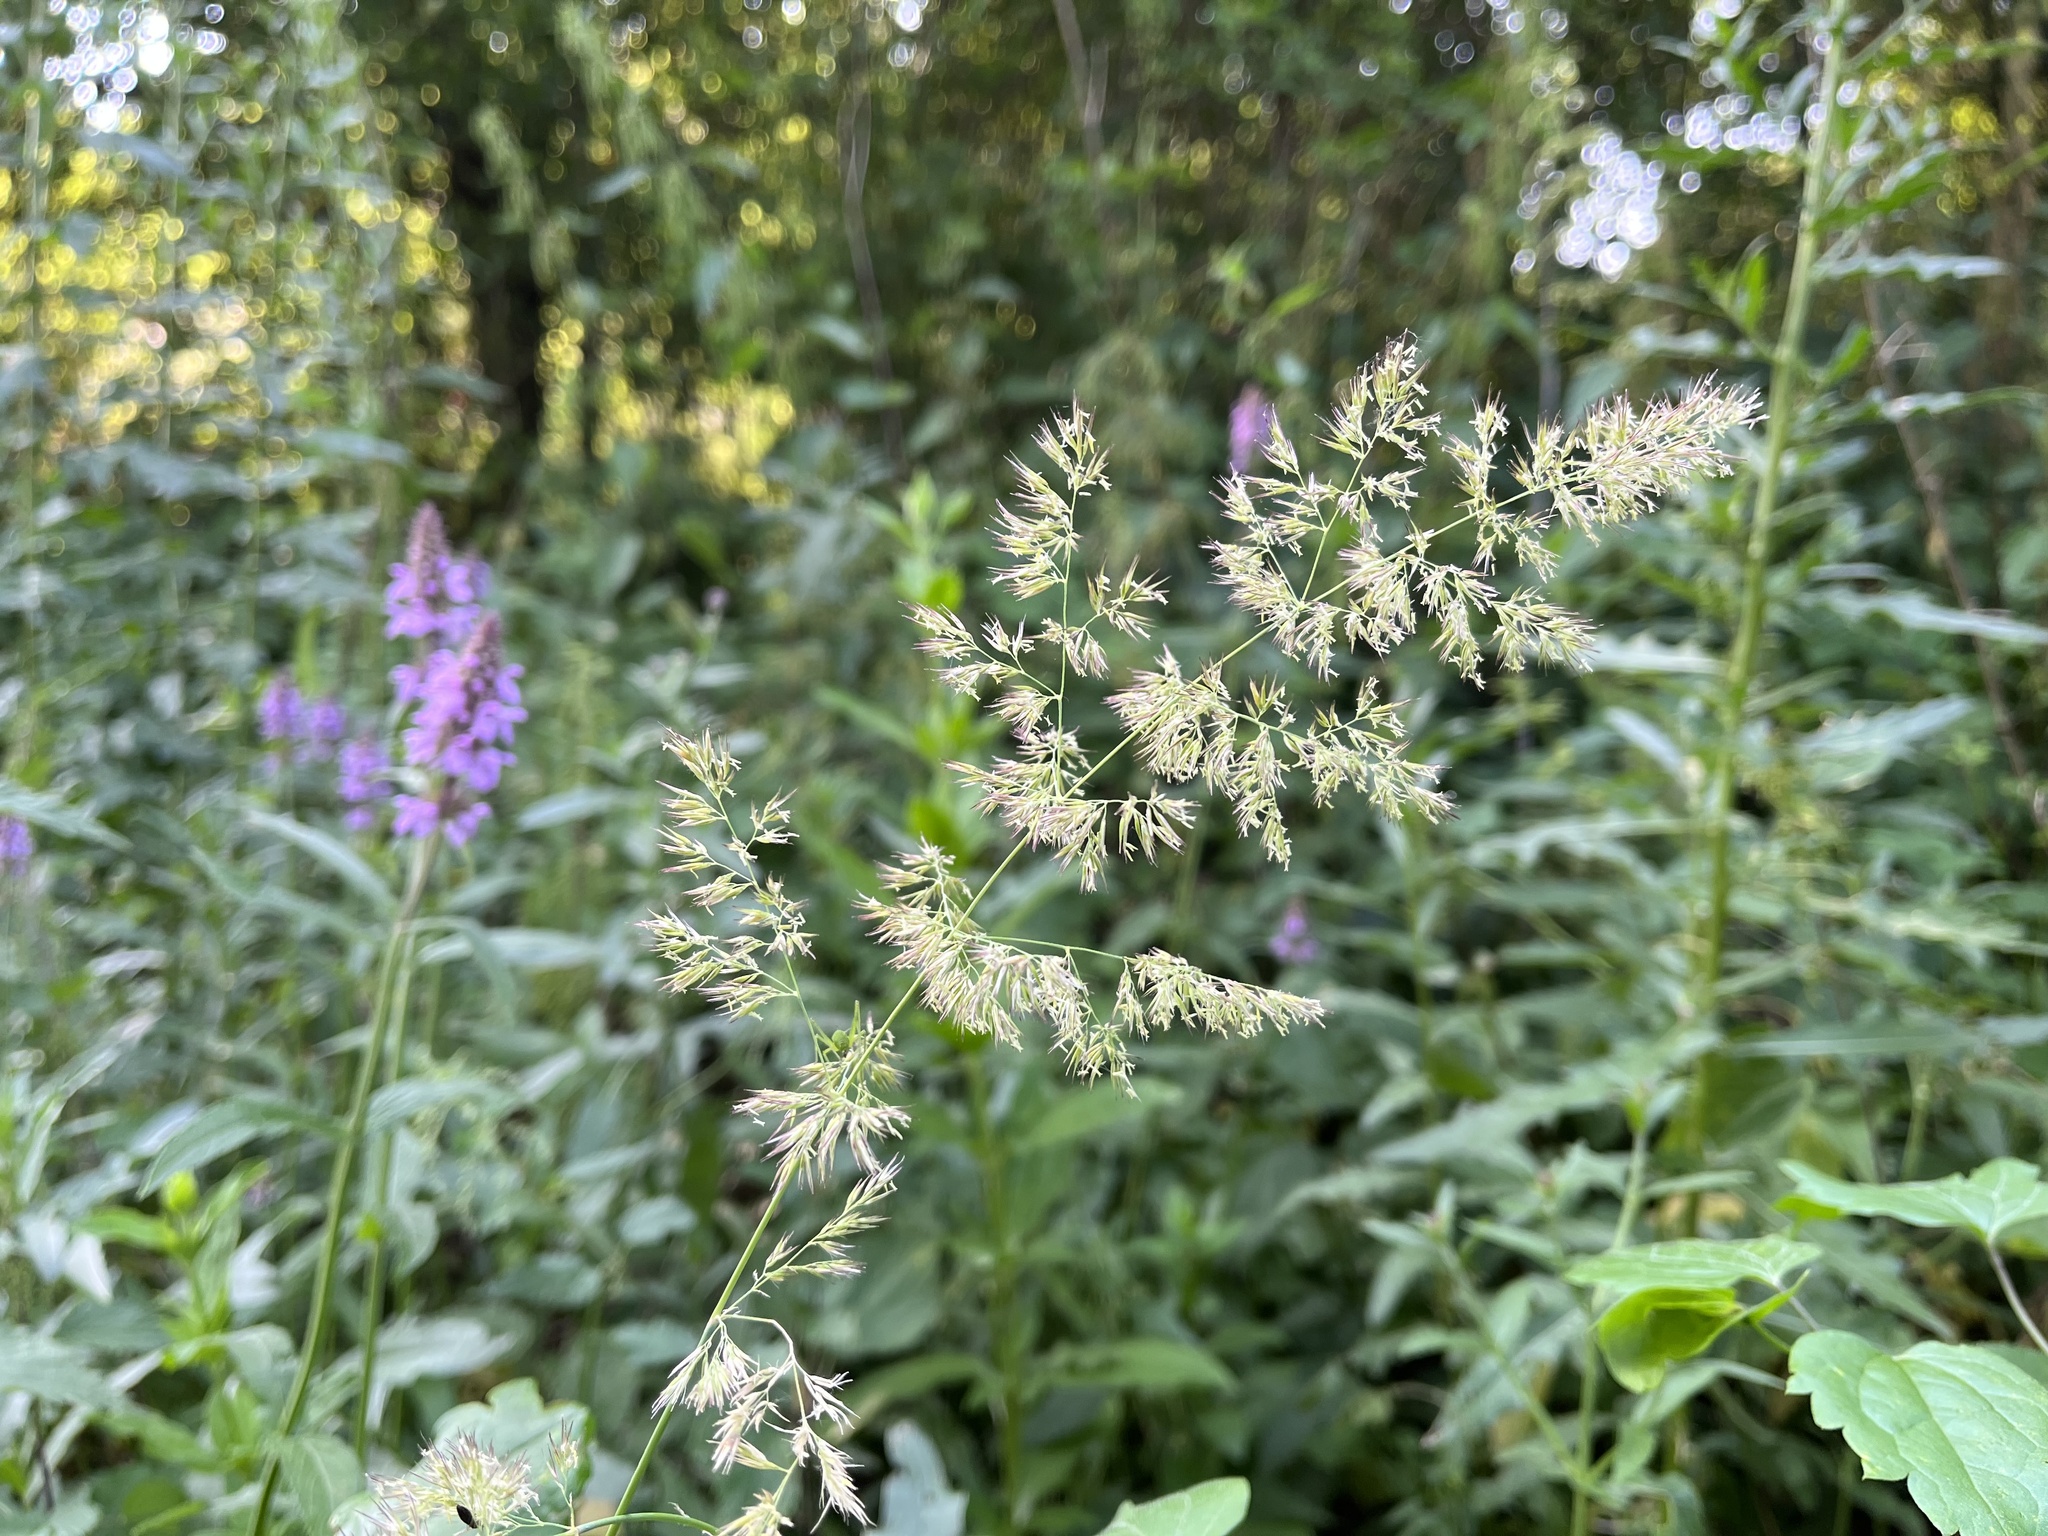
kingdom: Plantae
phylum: Tracheophyta
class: Liliopsida
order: Poales
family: Poaceae
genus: Calamagrostis
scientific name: Calamagrostis epigejos
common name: Wood small-reed
